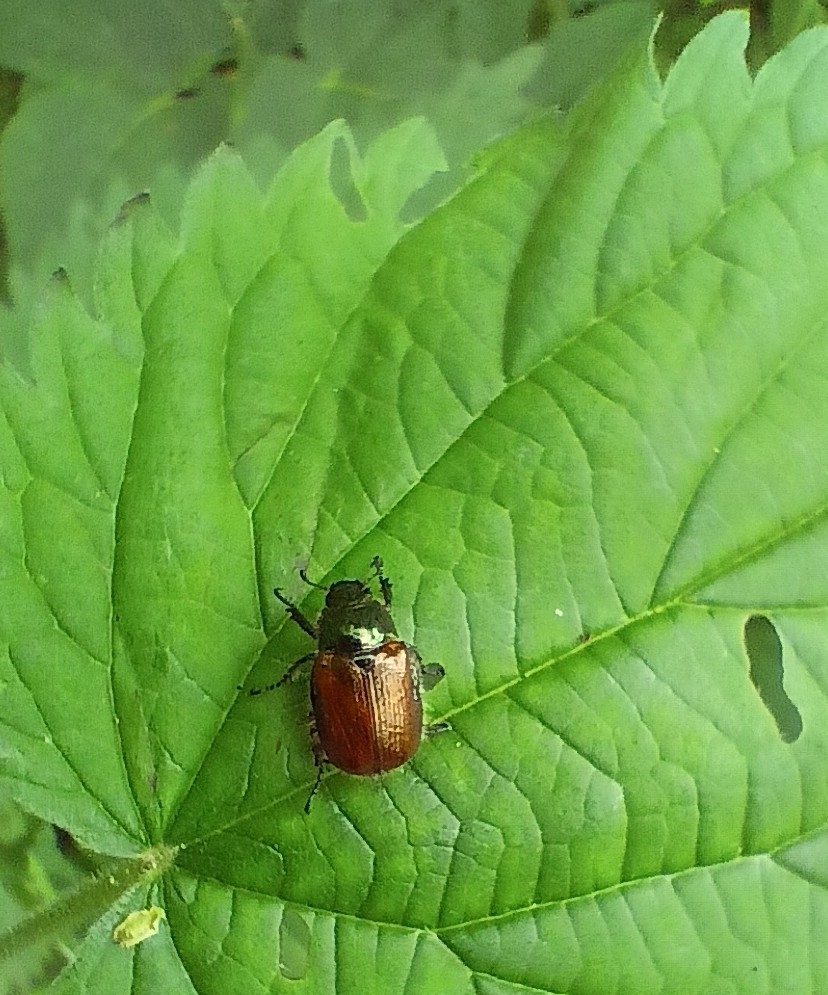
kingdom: Animalia
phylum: Arthropoda
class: Insecta
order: Coleoptera
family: Scarabaeidae
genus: Phyllopertha
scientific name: Phyllopertha horticola
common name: Garden chafer
